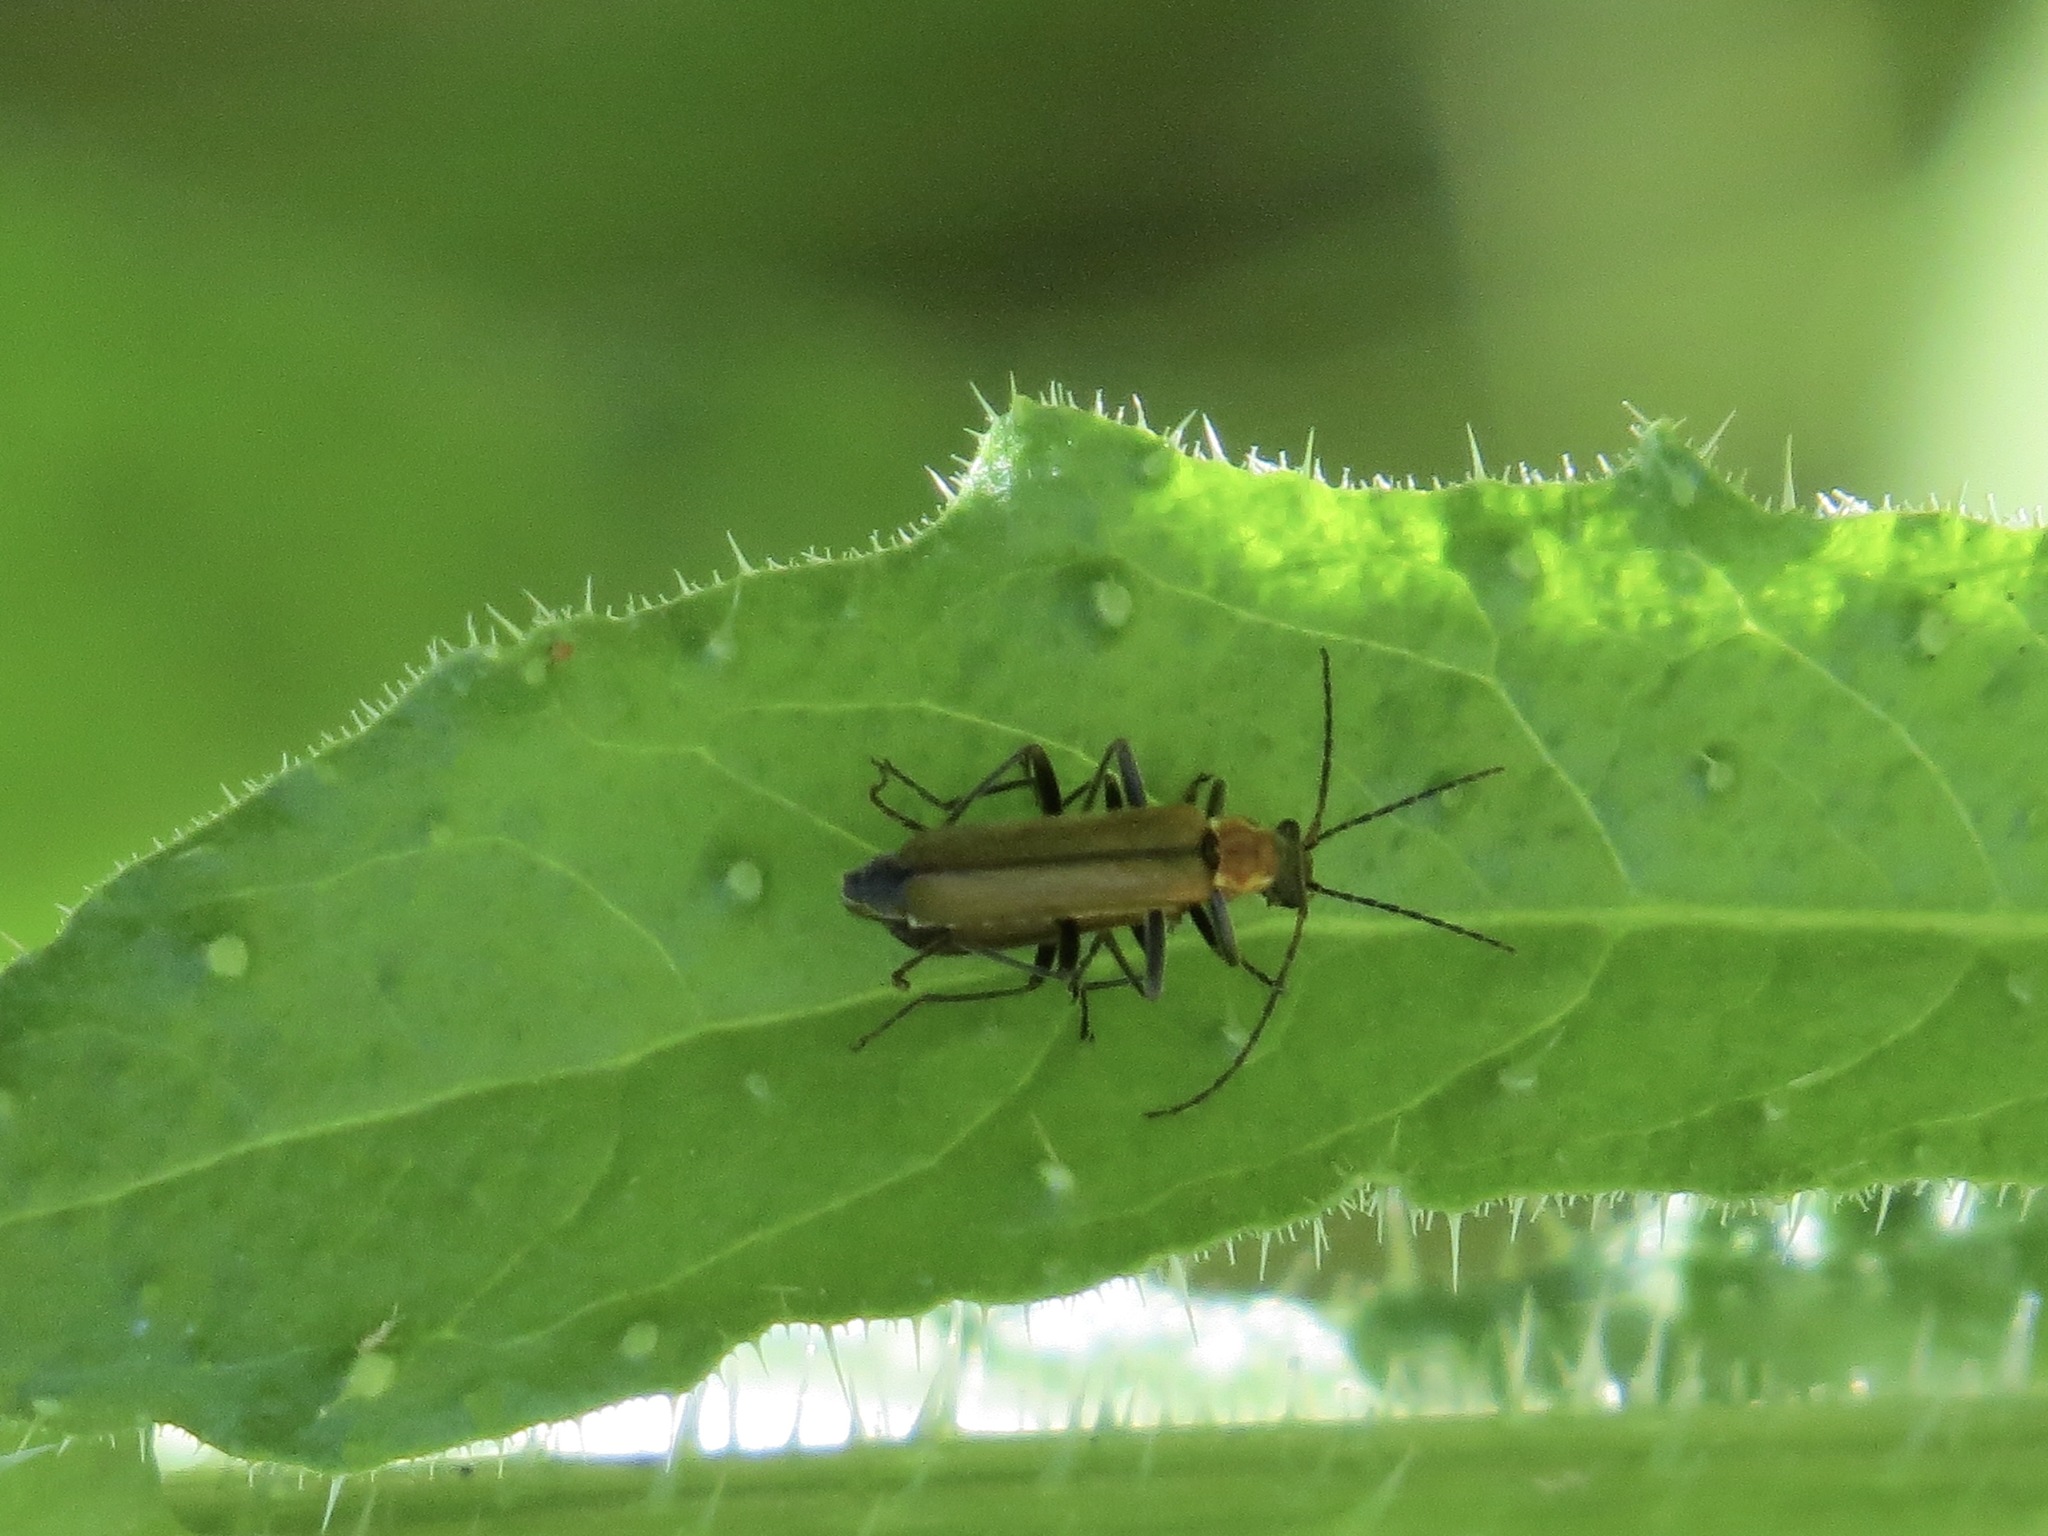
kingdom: Animalia
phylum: Arthropoda
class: Insecta
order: Coleoptera
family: Cantharidae
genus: Dichelotarsus
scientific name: Dichelotarsus lutosus
